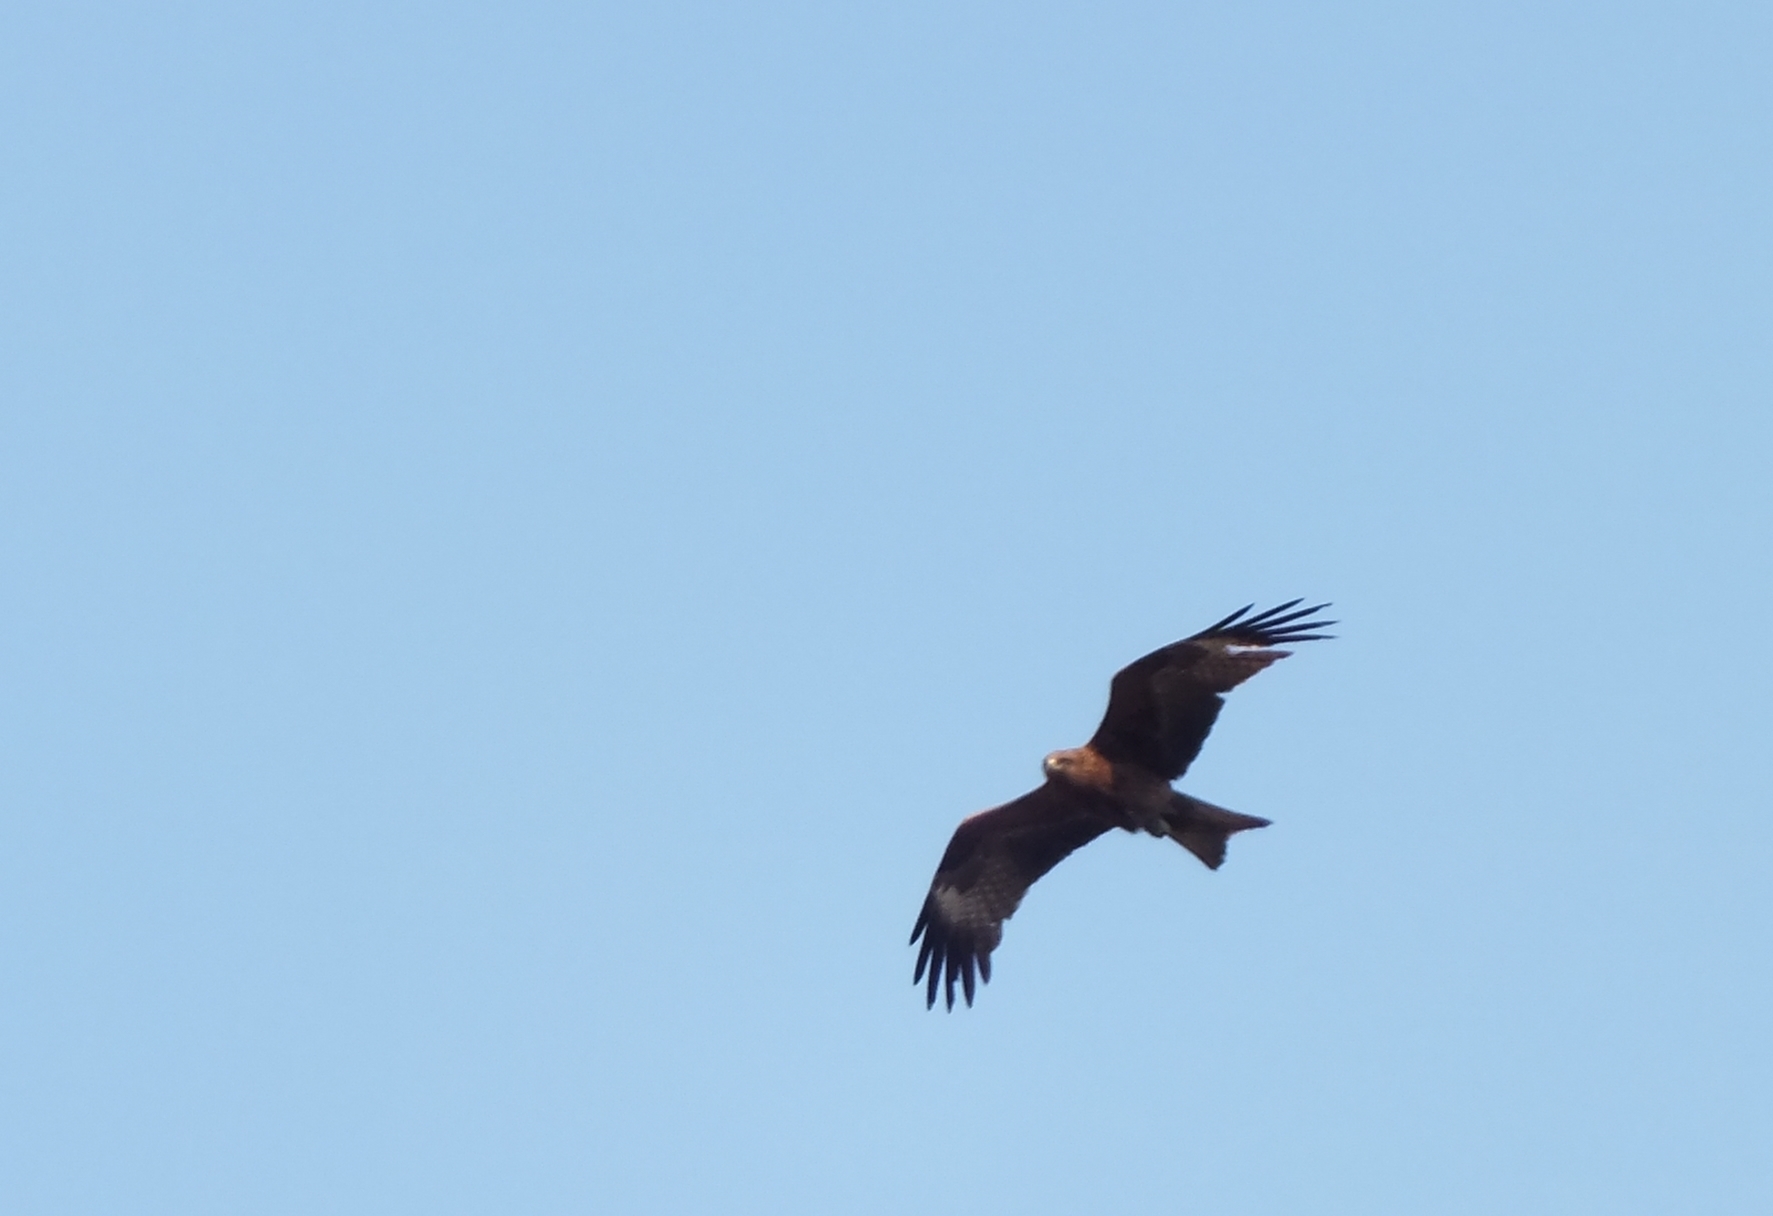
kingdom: Animalia
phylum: Chordata
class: Aves
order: Accipitriformes
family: Accipitridae
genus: Milvus
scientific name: Milvus migrans
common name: Black kite
